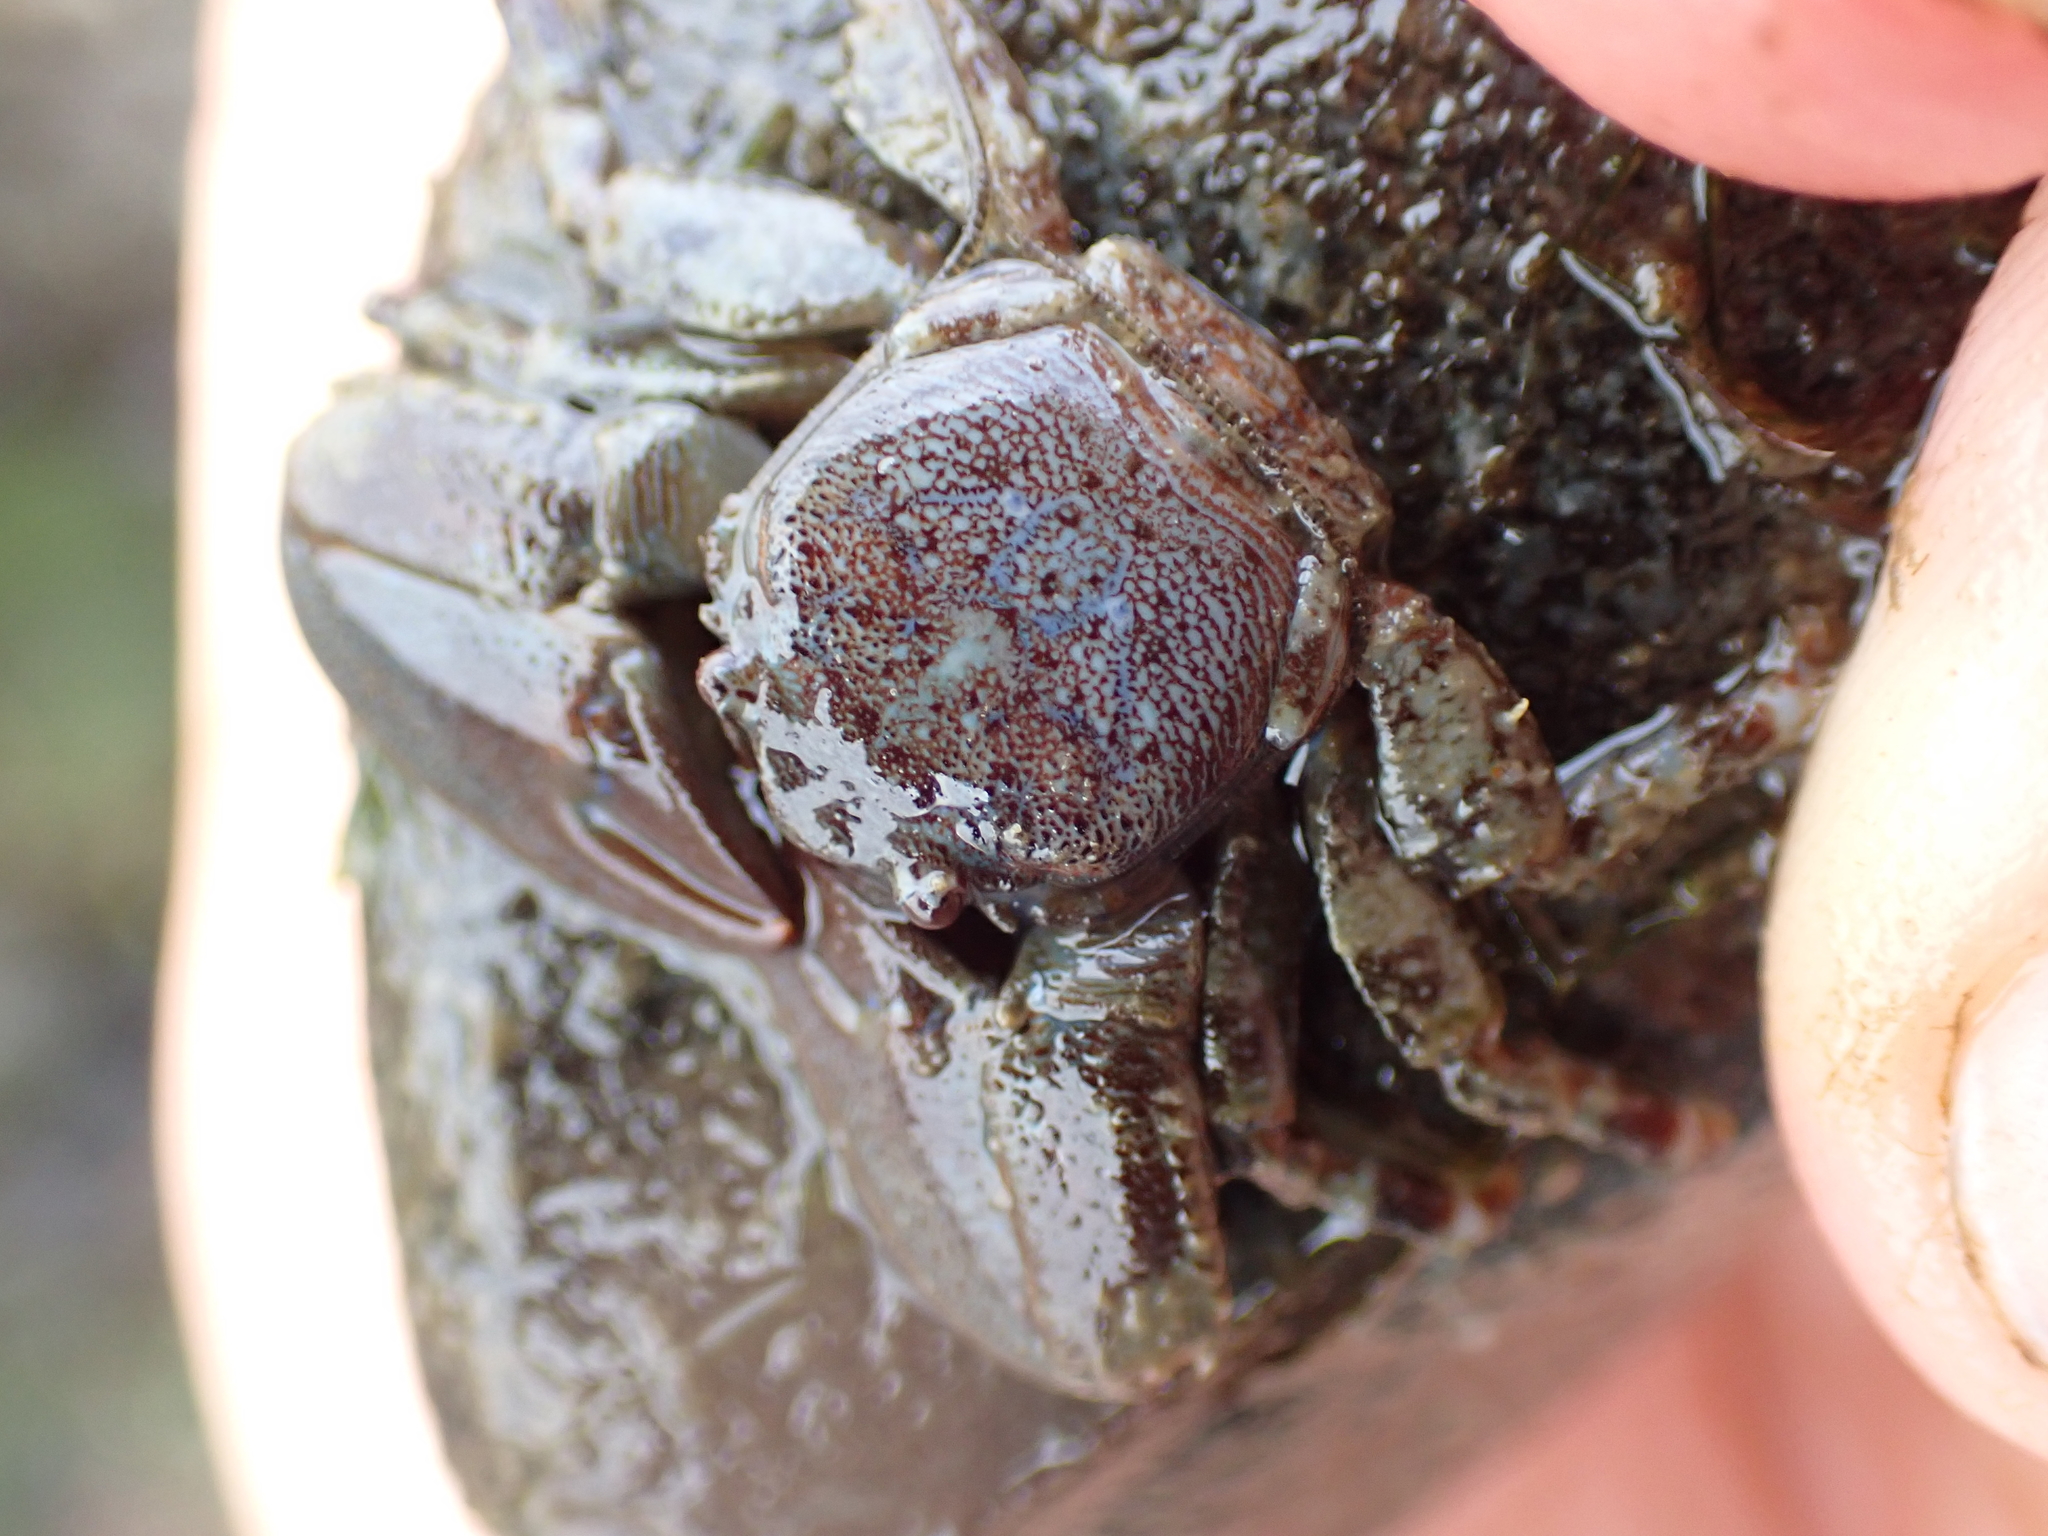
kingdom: Animalia
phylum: Arthropoda
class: Malacostraca
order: Decapoda
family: Porcellanidae
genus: Petrolisthes
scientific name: Petrolisthes eriomerus
